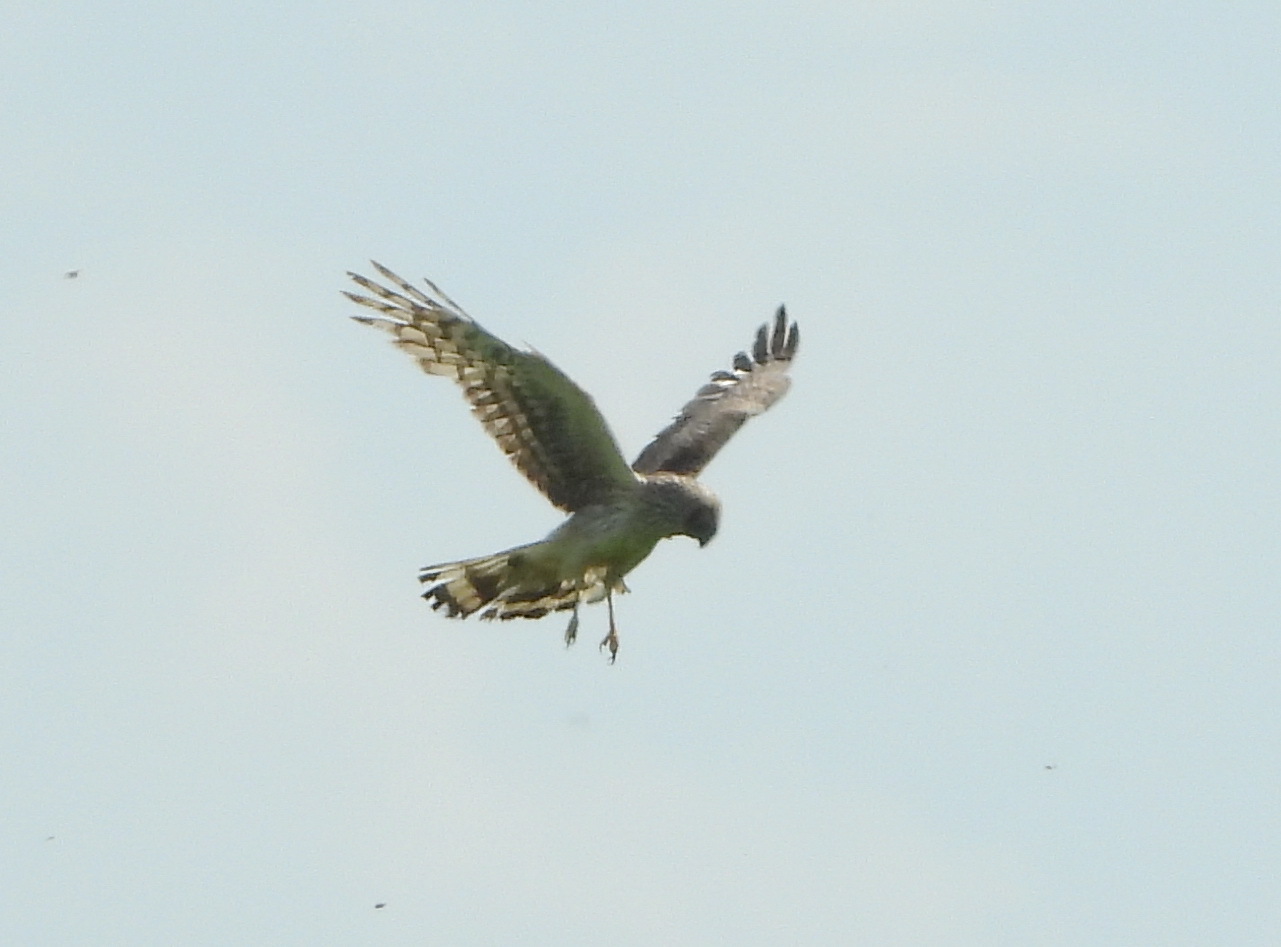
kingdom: Animalia
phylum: Chordata
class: Aves
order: Accipitriformes
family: Accipitridae
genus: Circus
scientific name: Circus cyaneus
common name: Hen harrier
